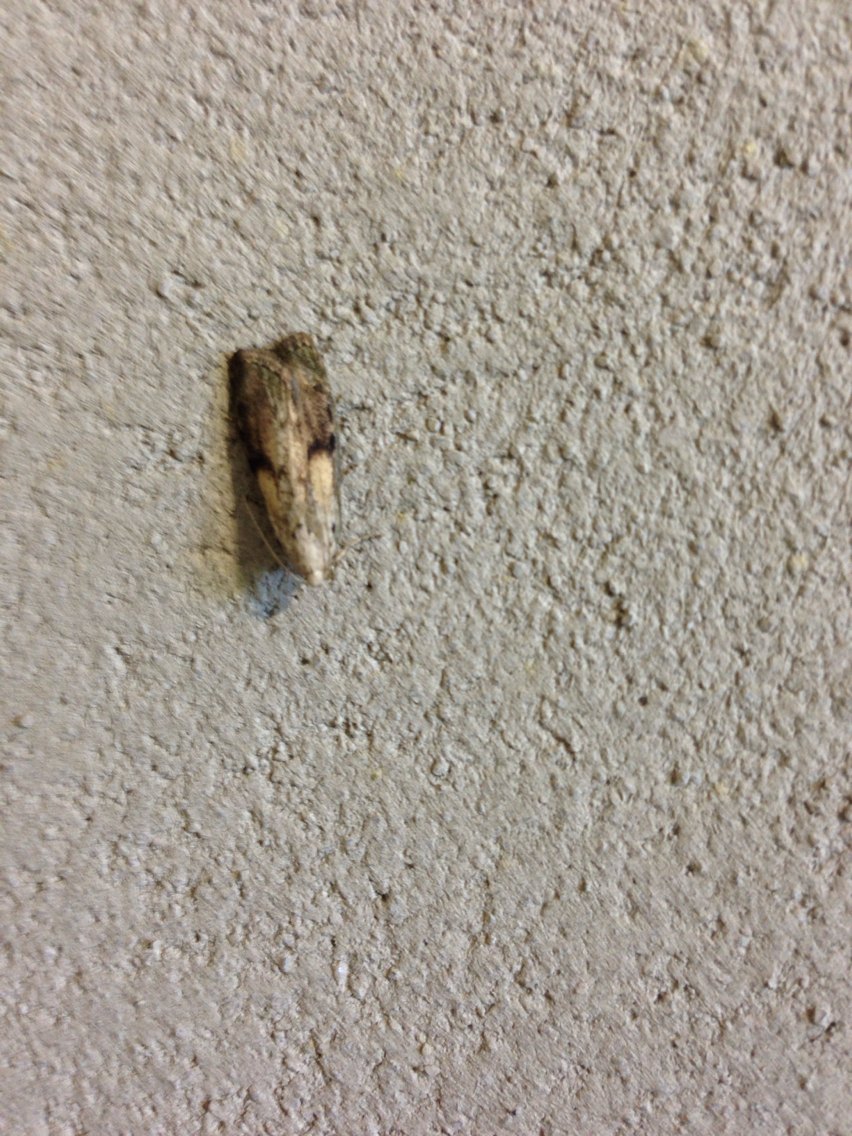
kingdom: Animalia
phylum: Arthropoda
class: Insecta
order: Lepidoptera
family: Pyralidae
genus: Aphomia
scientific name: Aphomia sociella
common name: Bee moth
